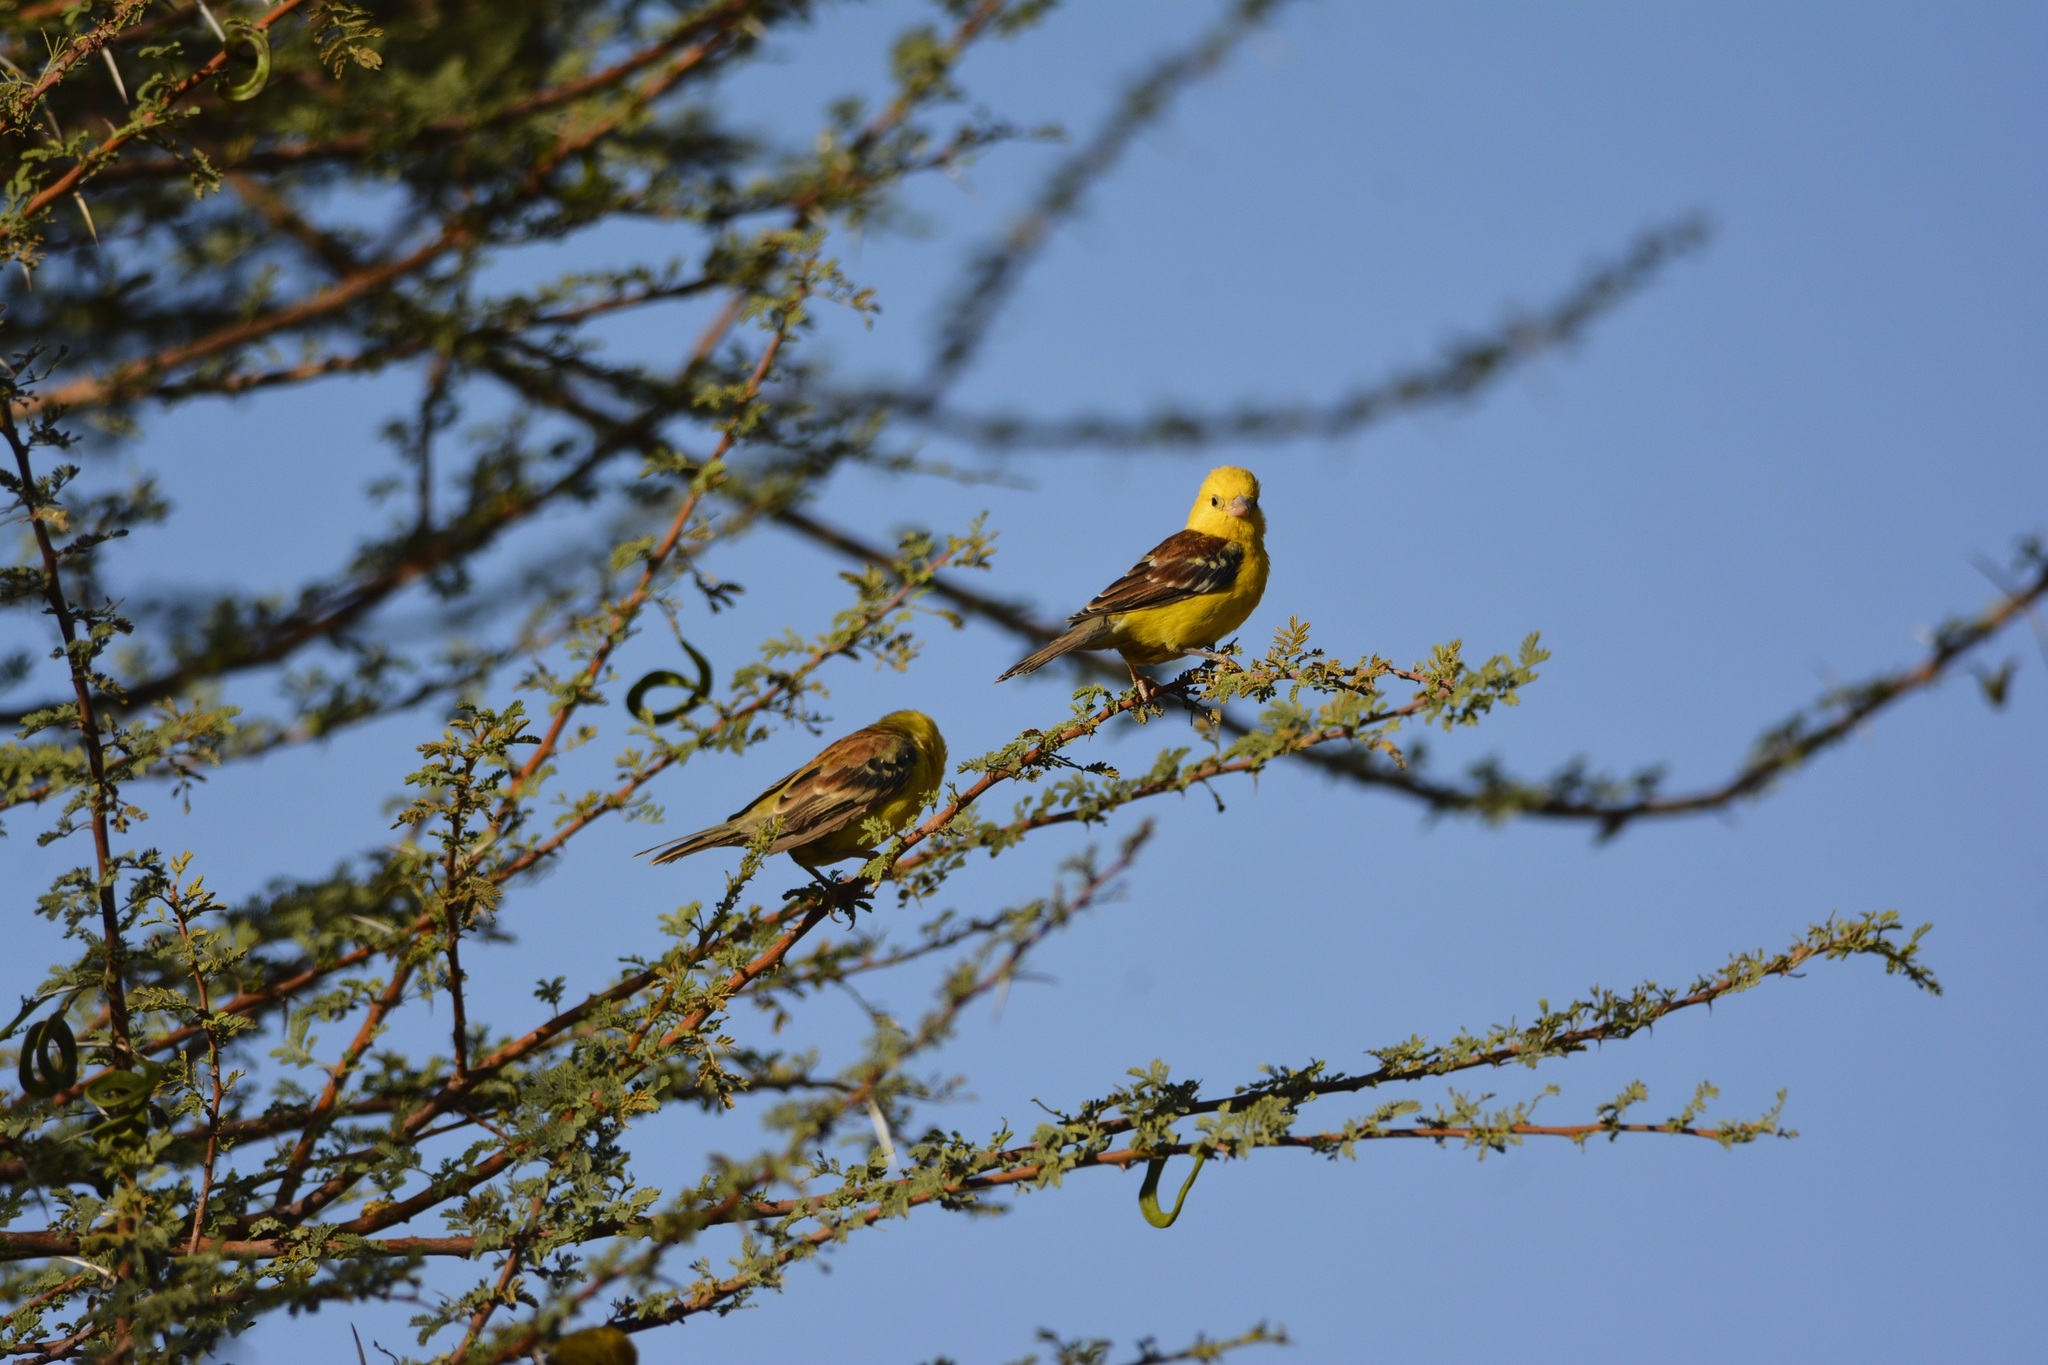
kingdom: Animalia
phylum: Chordata
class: Aves
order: Passeriformes
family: Passeridae
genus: Passer
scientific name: Passer luteus
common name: Sudan golden sparrow
